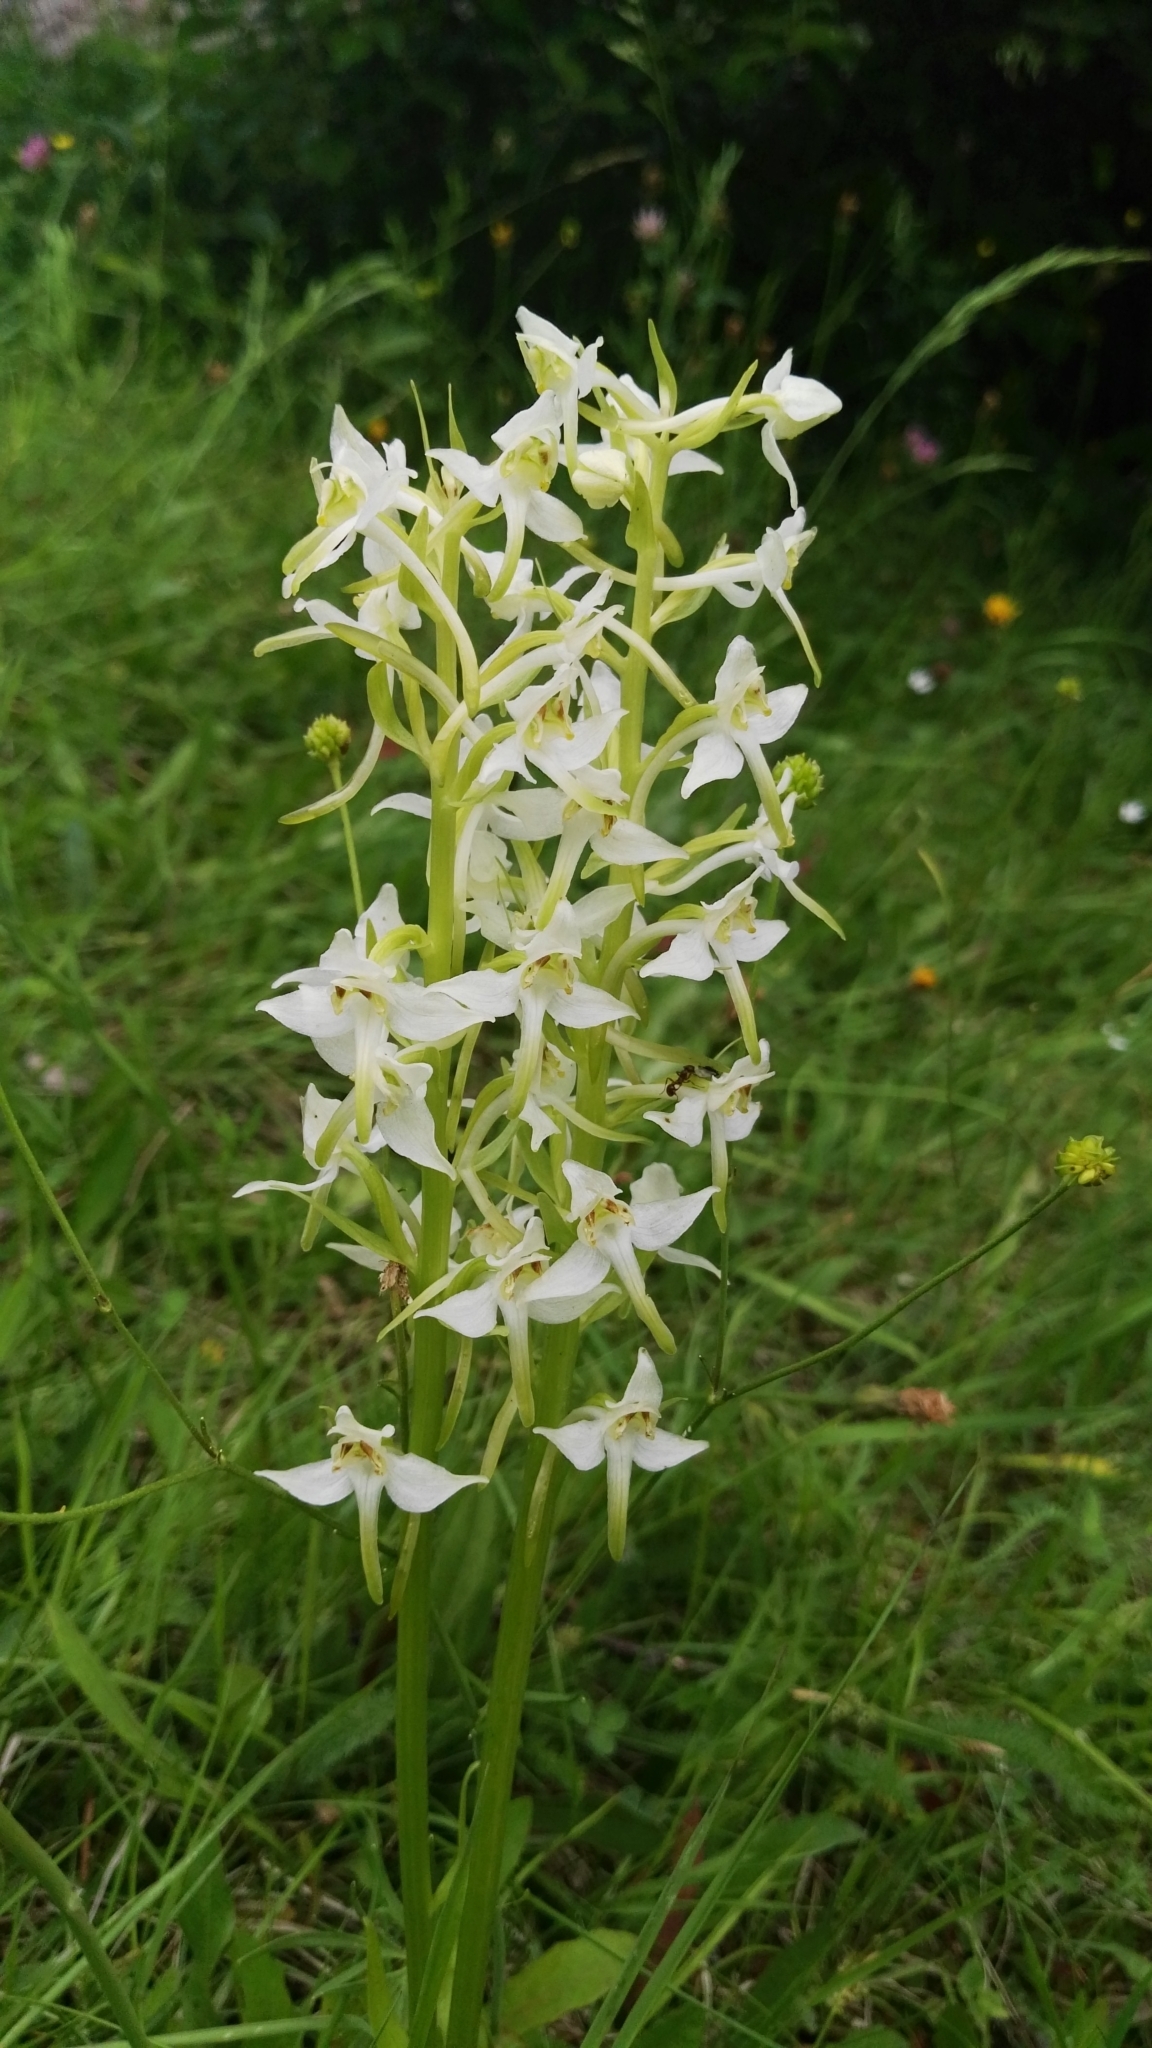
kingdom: Plantae
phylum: Tracheophyta
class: Liliopsida
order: Asparagales
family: Orchidaceae
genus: Platanthera
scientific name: Platanthera chlorantha
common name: Greater butterfly-orchid
